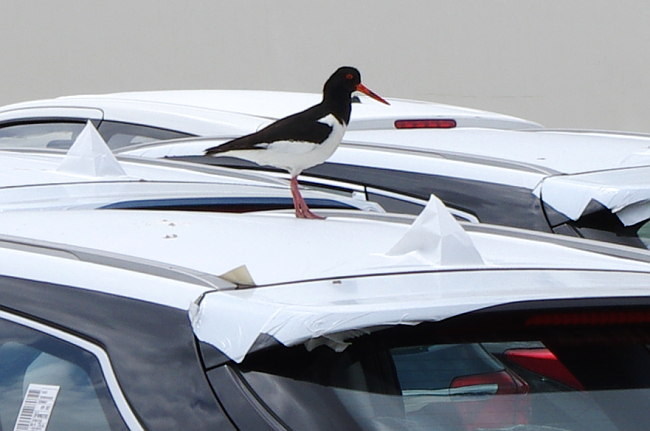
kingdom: Animalia
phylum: Chordata
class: Aves
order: Charadriiformes
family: Haematopodidae
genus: Haematopus
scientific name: Haematopus ostralegus
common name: Eurasian oystercatcher
